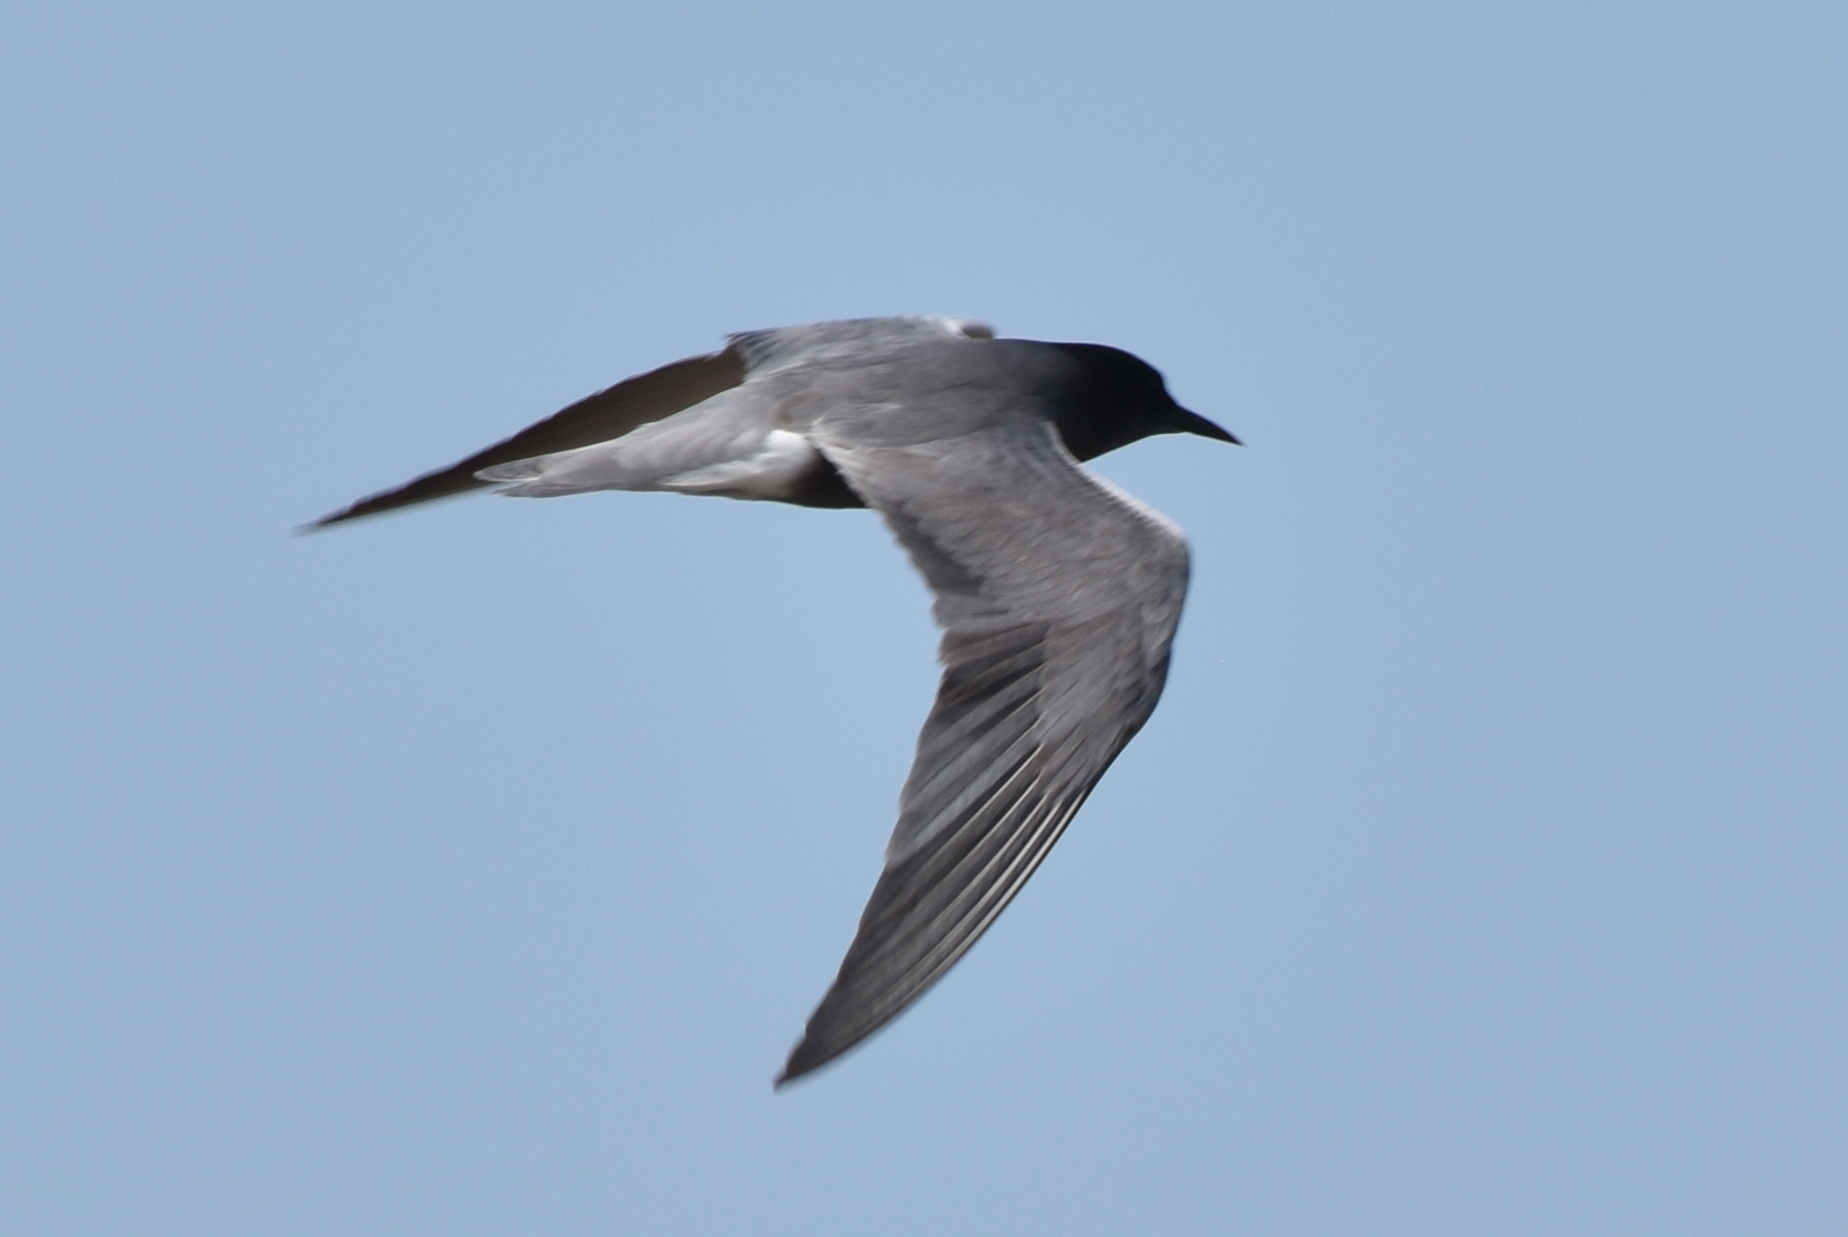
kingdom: Animalia
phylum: Chordata
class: Aves
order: Charadriiformes
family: Laridae
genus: Chlidonias
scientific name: Chlidonias niger
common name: Black tern
